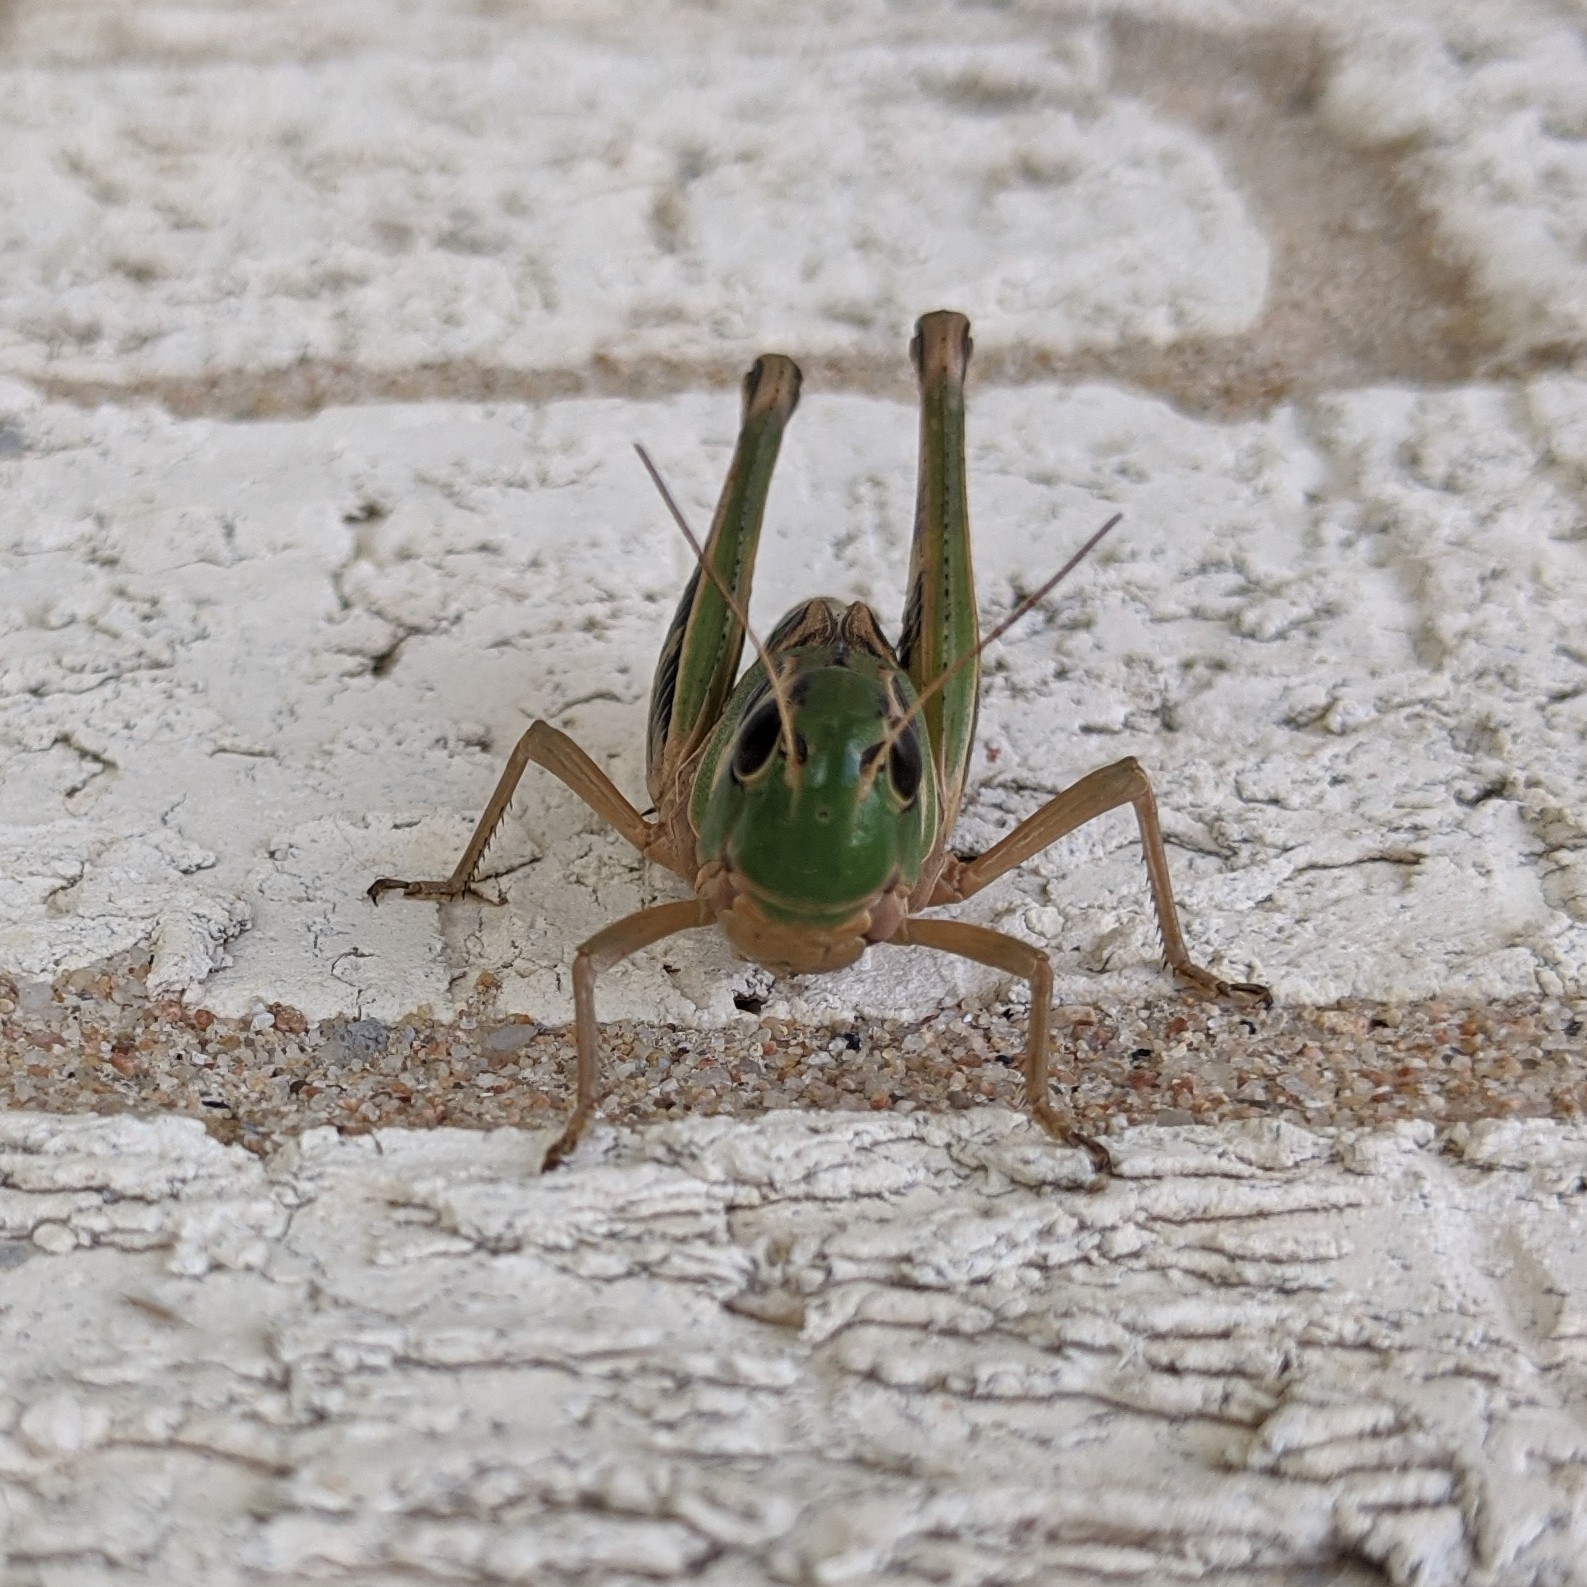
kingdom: Animalia
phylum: Arthropoda
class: Insecta
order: Orthoptera
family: Acrididae
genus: Boopedon
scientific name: Boopedon gracile
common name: Graceful range grasshopper
